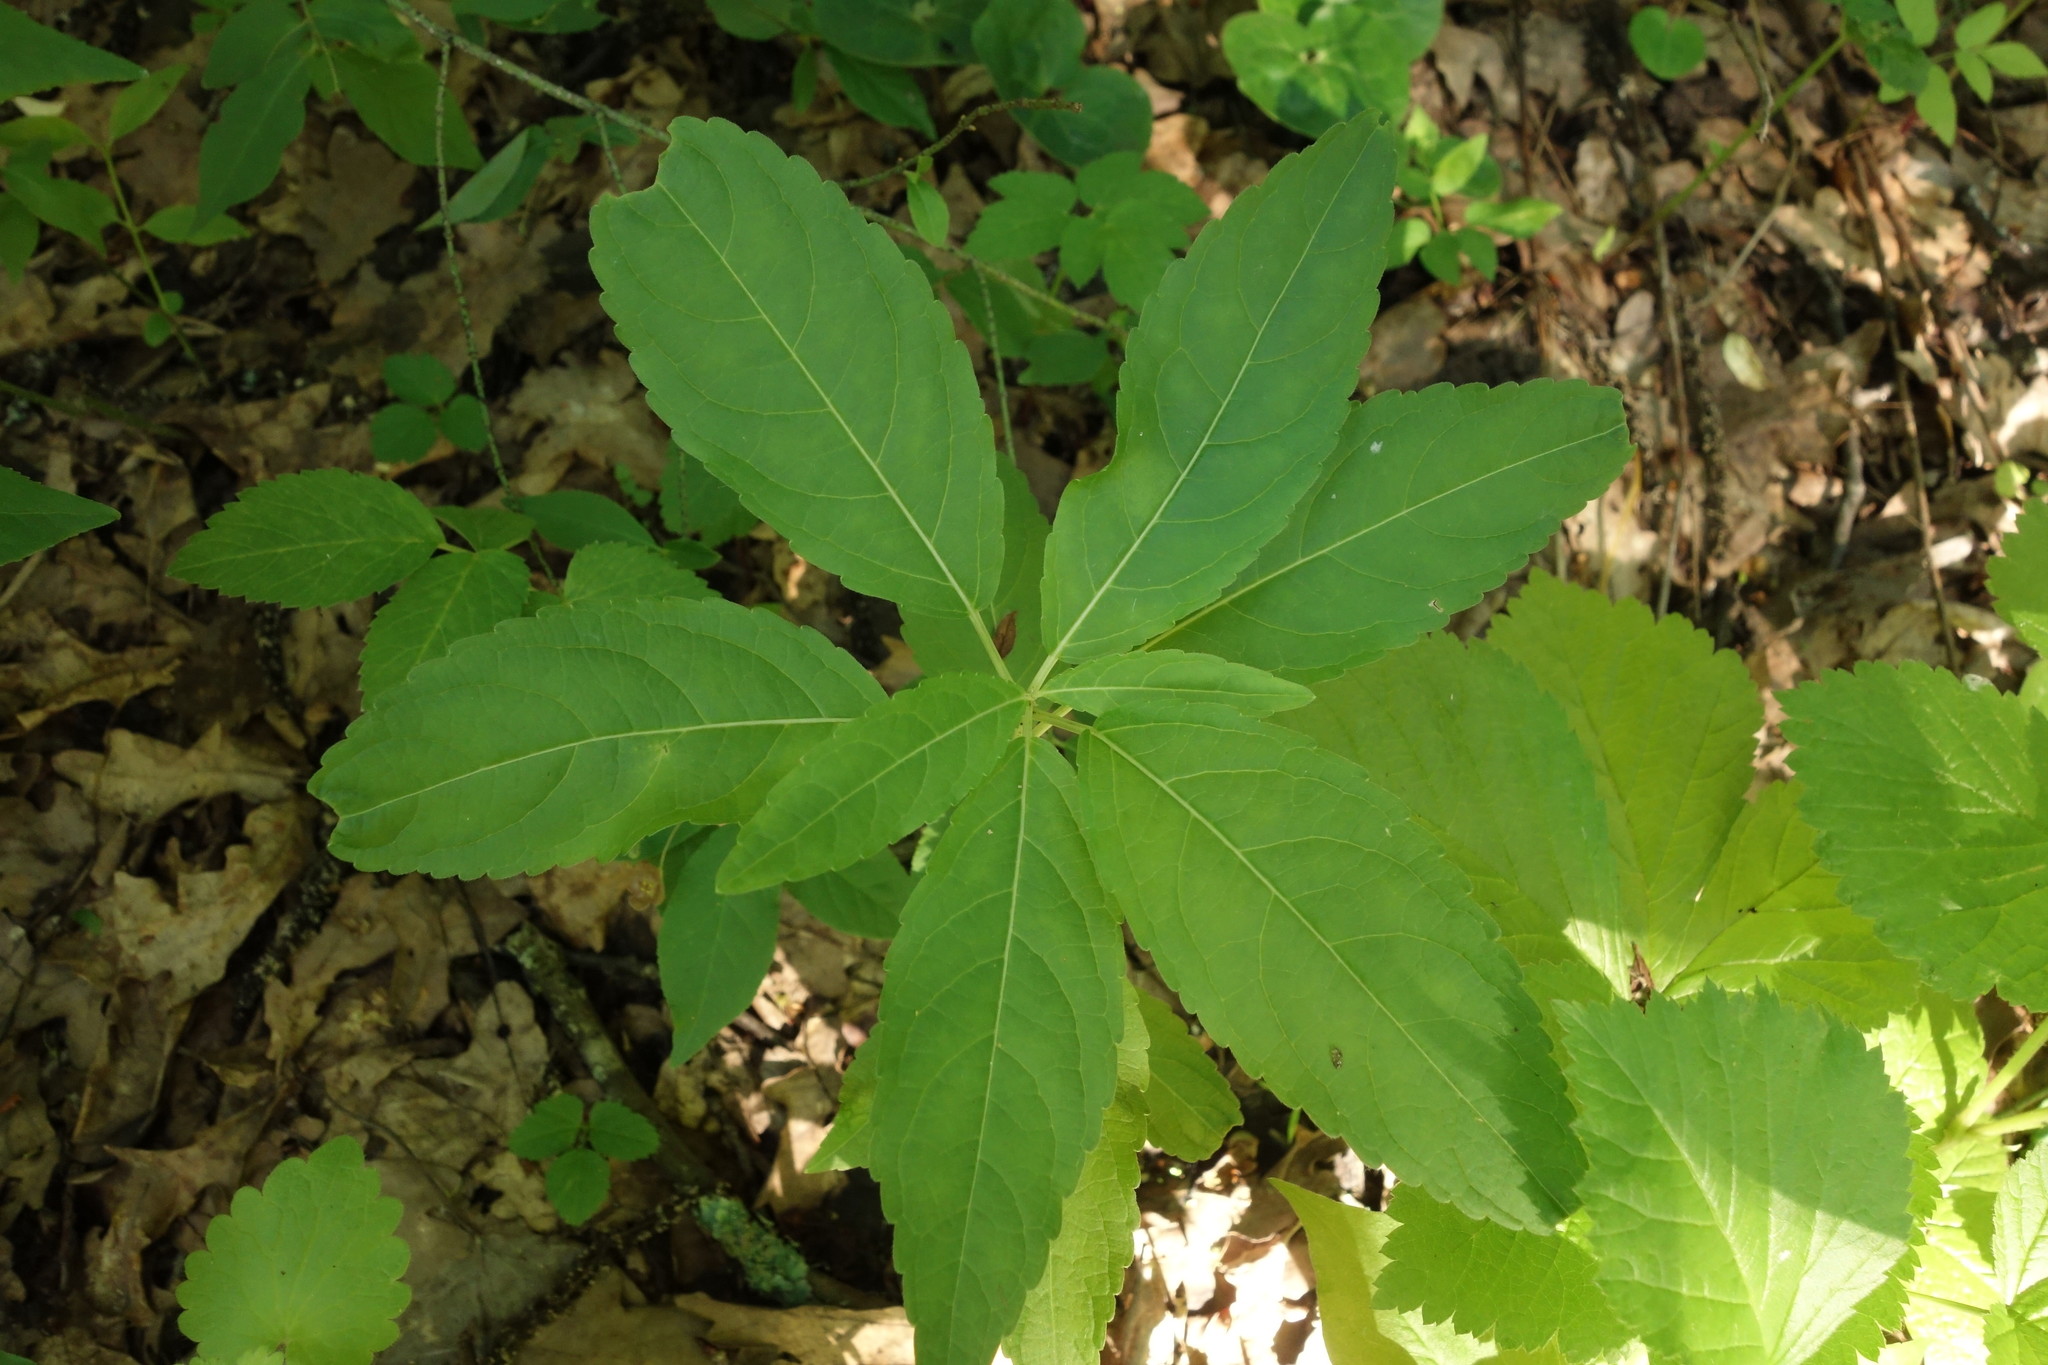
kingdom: Plantae
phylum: Tracheophyta
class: Magnoliopsida
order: Malpighiales
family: Euphorbiaceae
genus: Mercurialis
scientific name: Mercurialis perennis
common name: Dog mercury
